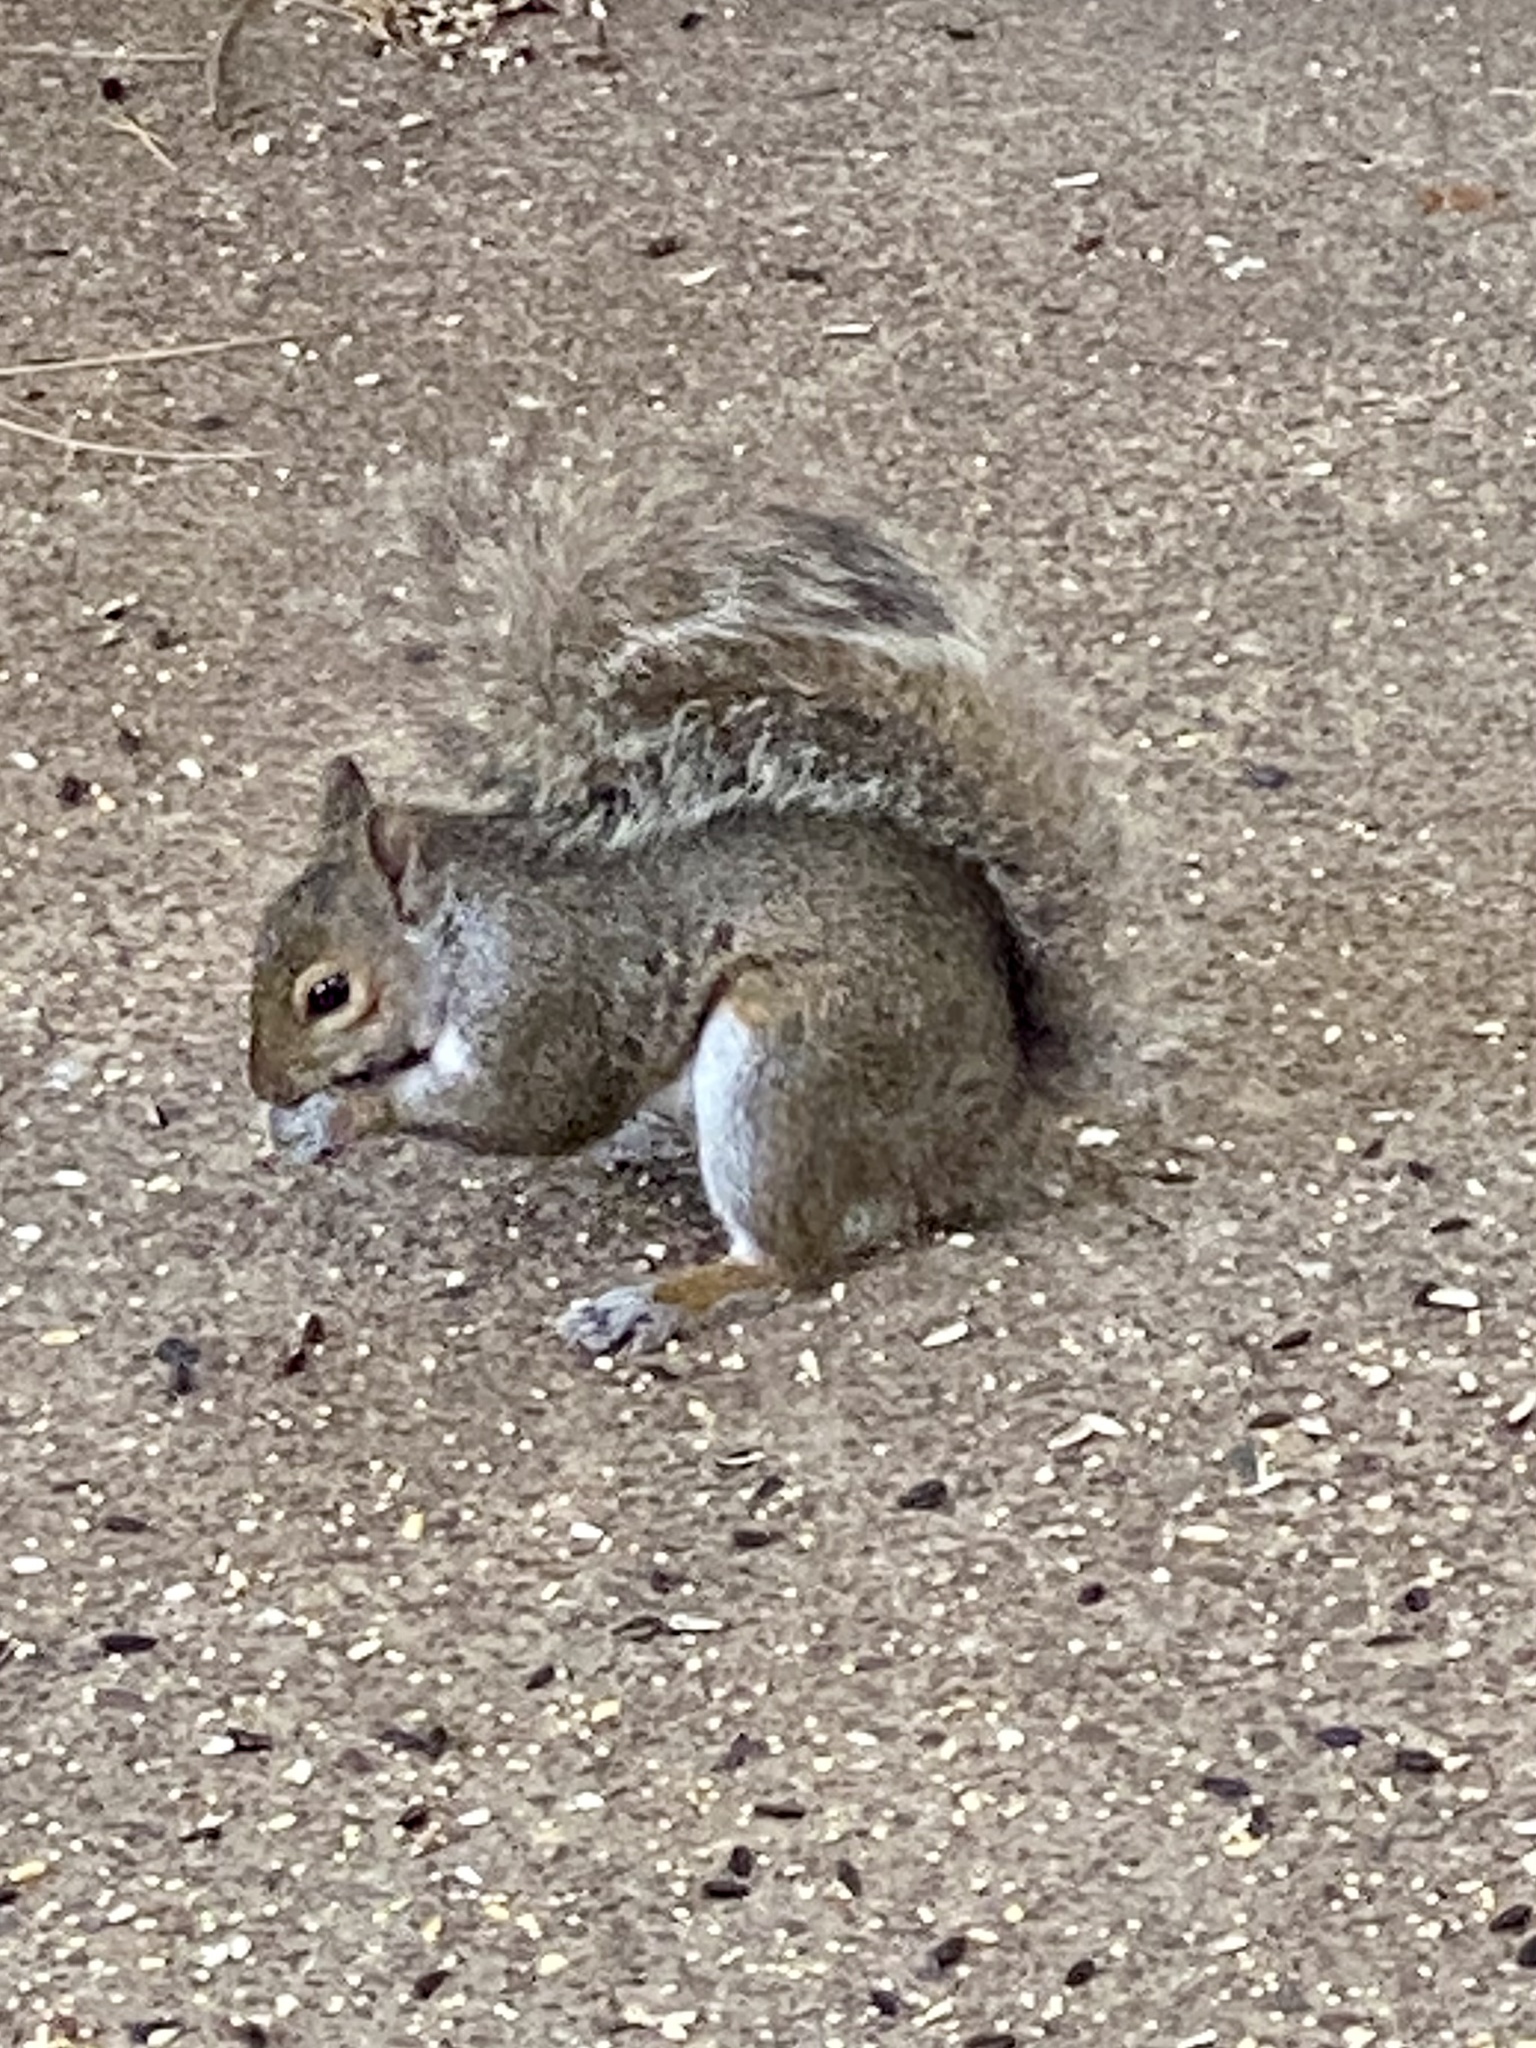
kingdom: Animalia
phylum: Chordata
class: Mammalia
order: Rodentia
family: Sciuridae
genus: Sciurus
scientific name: Sciurus carolinensis
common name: Eastern gray squirrel
